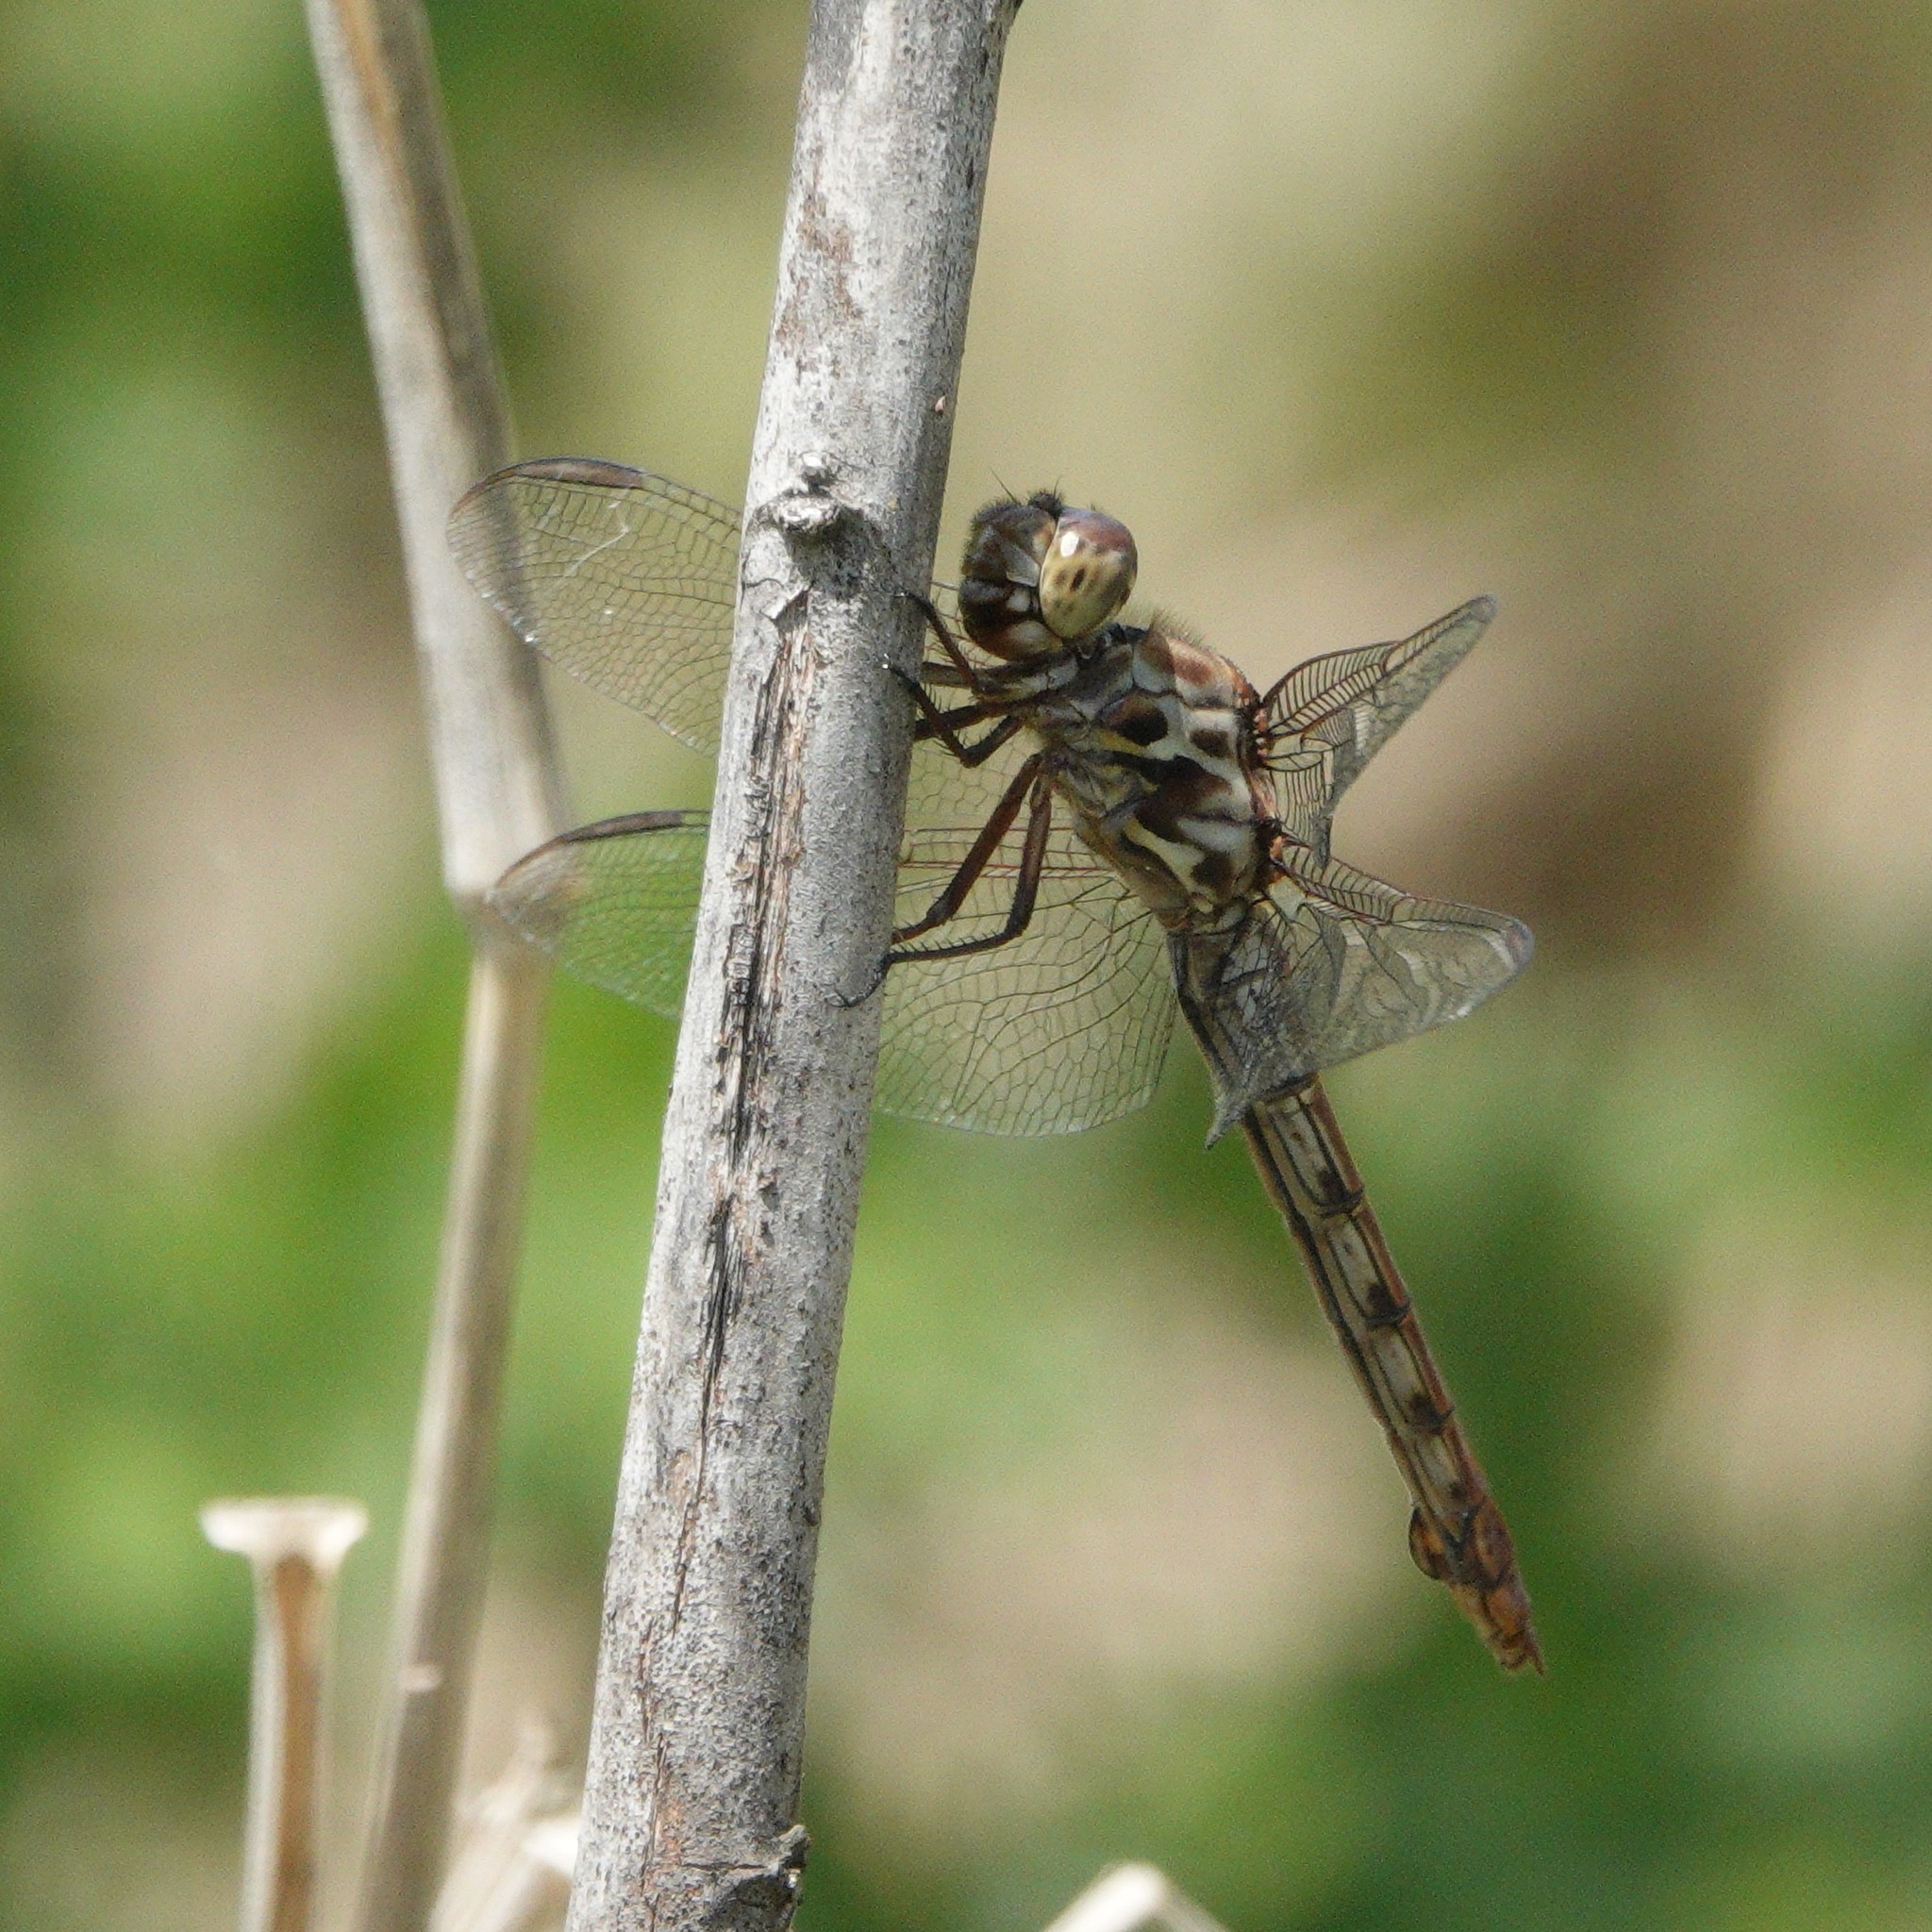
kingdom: Animalia
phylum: Arthropoda
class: Insecta
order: Odonata
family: Libellulidae
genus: Orthemis
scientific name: Orthemis ferruginea
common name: Roseate skimmer
